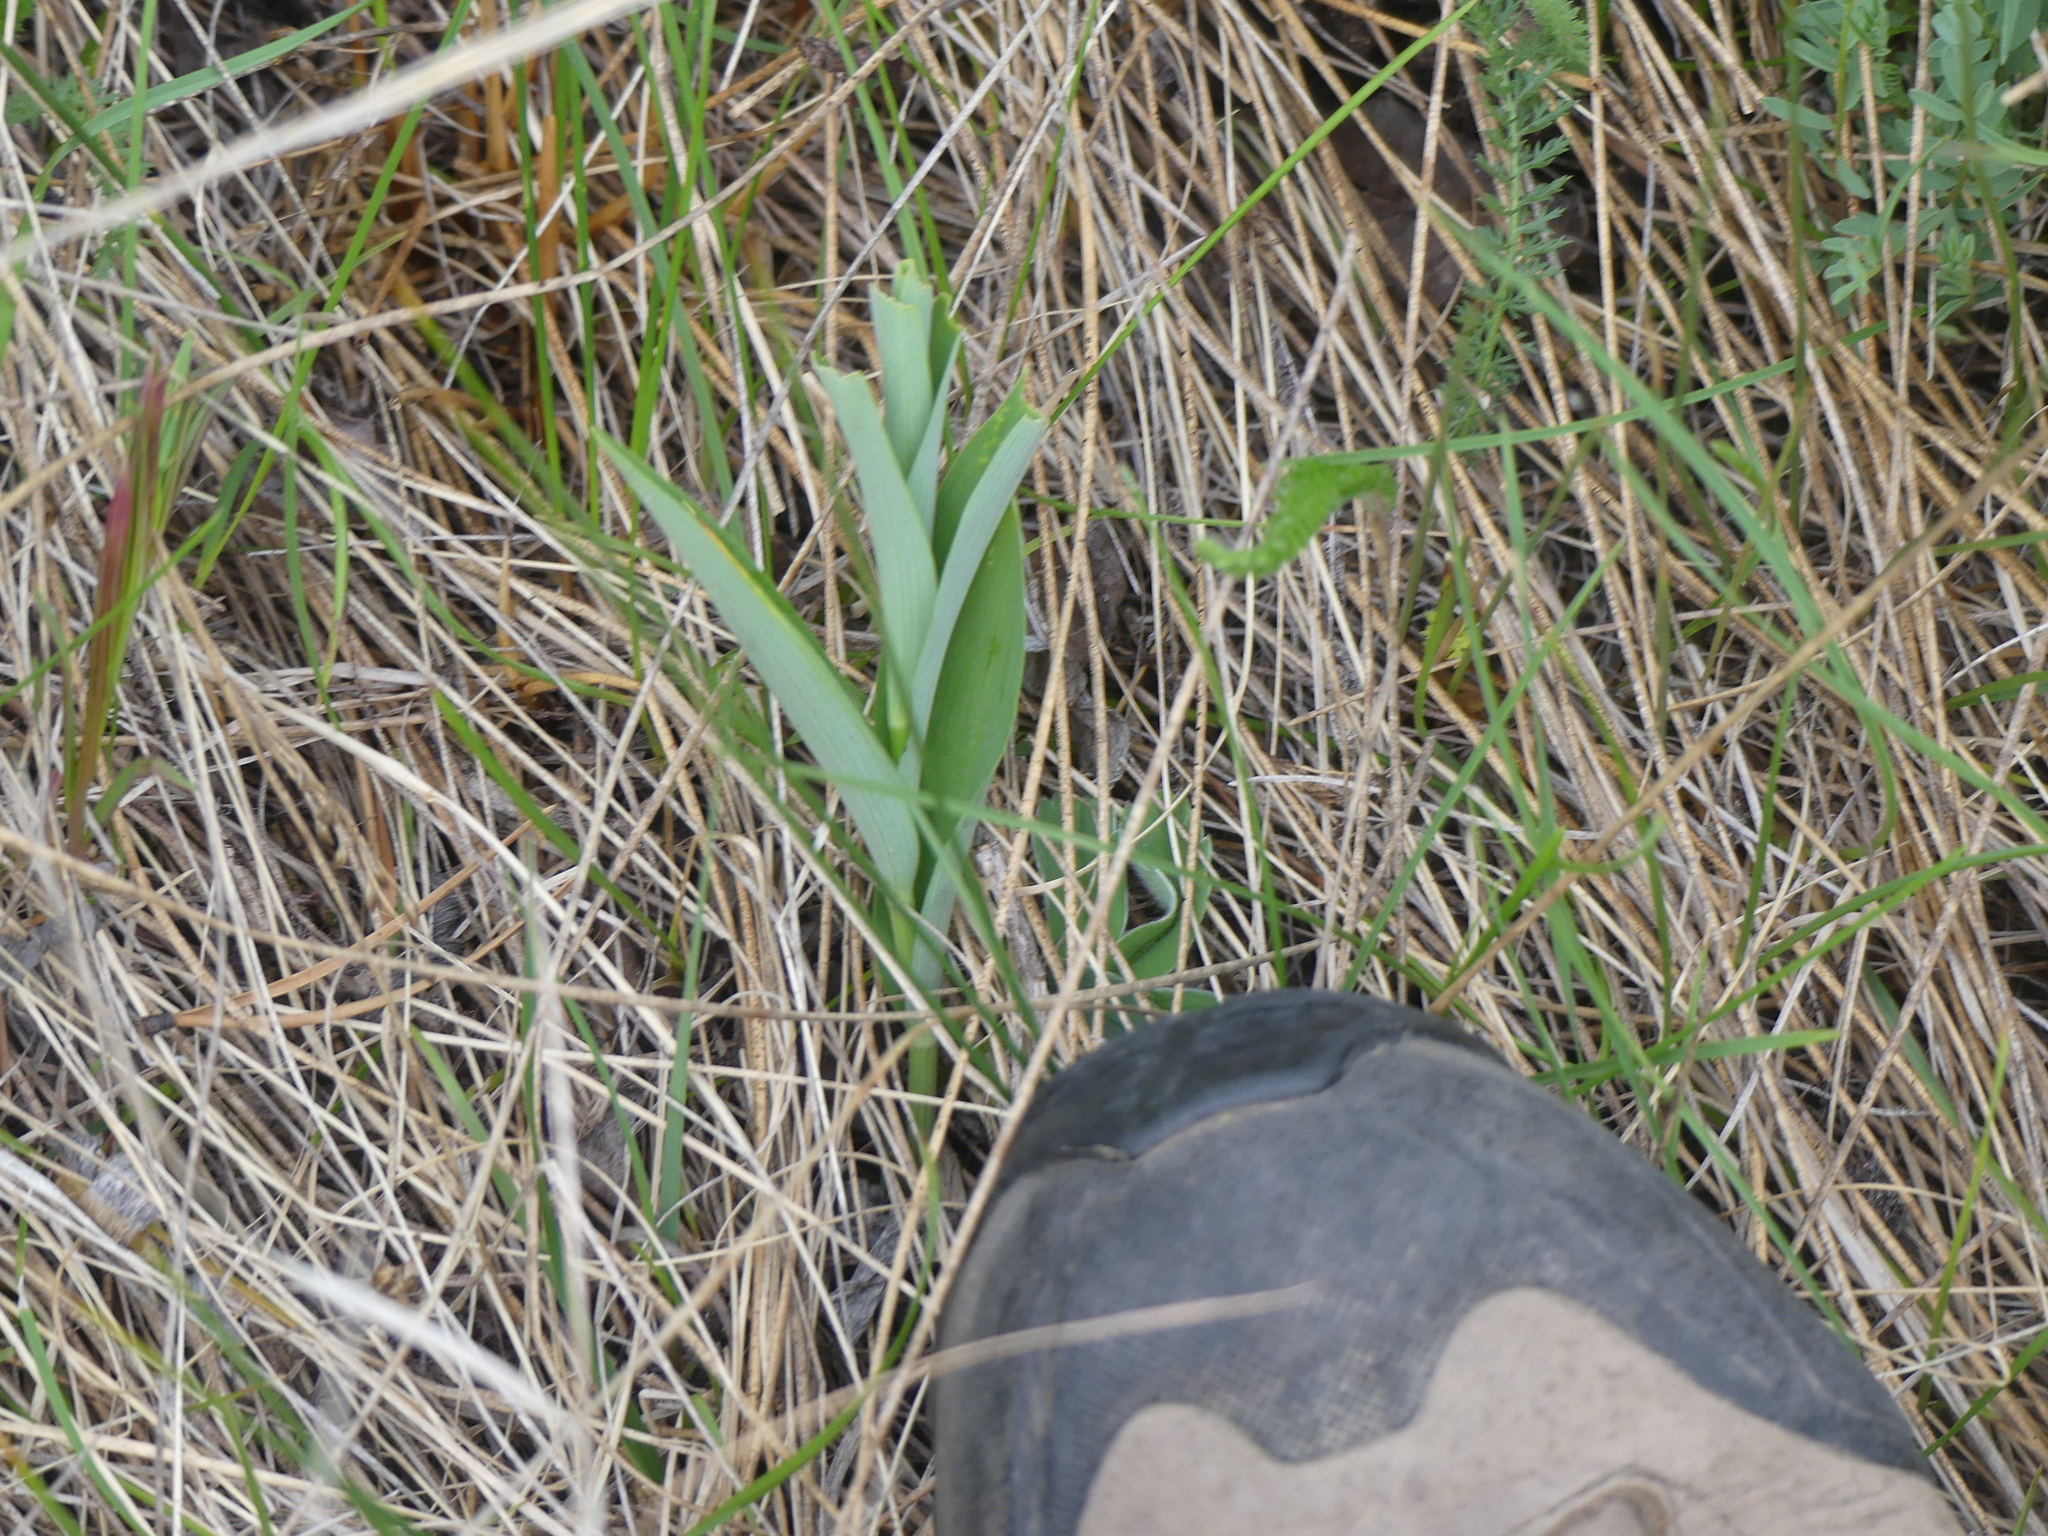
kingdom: Plantae
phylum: Tracheophyta
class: Liliopsida
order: Asparagales
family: Asparagaceae
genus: Maianthemum
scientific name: Maianthemum stellatum
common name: Little false solomon's seal
